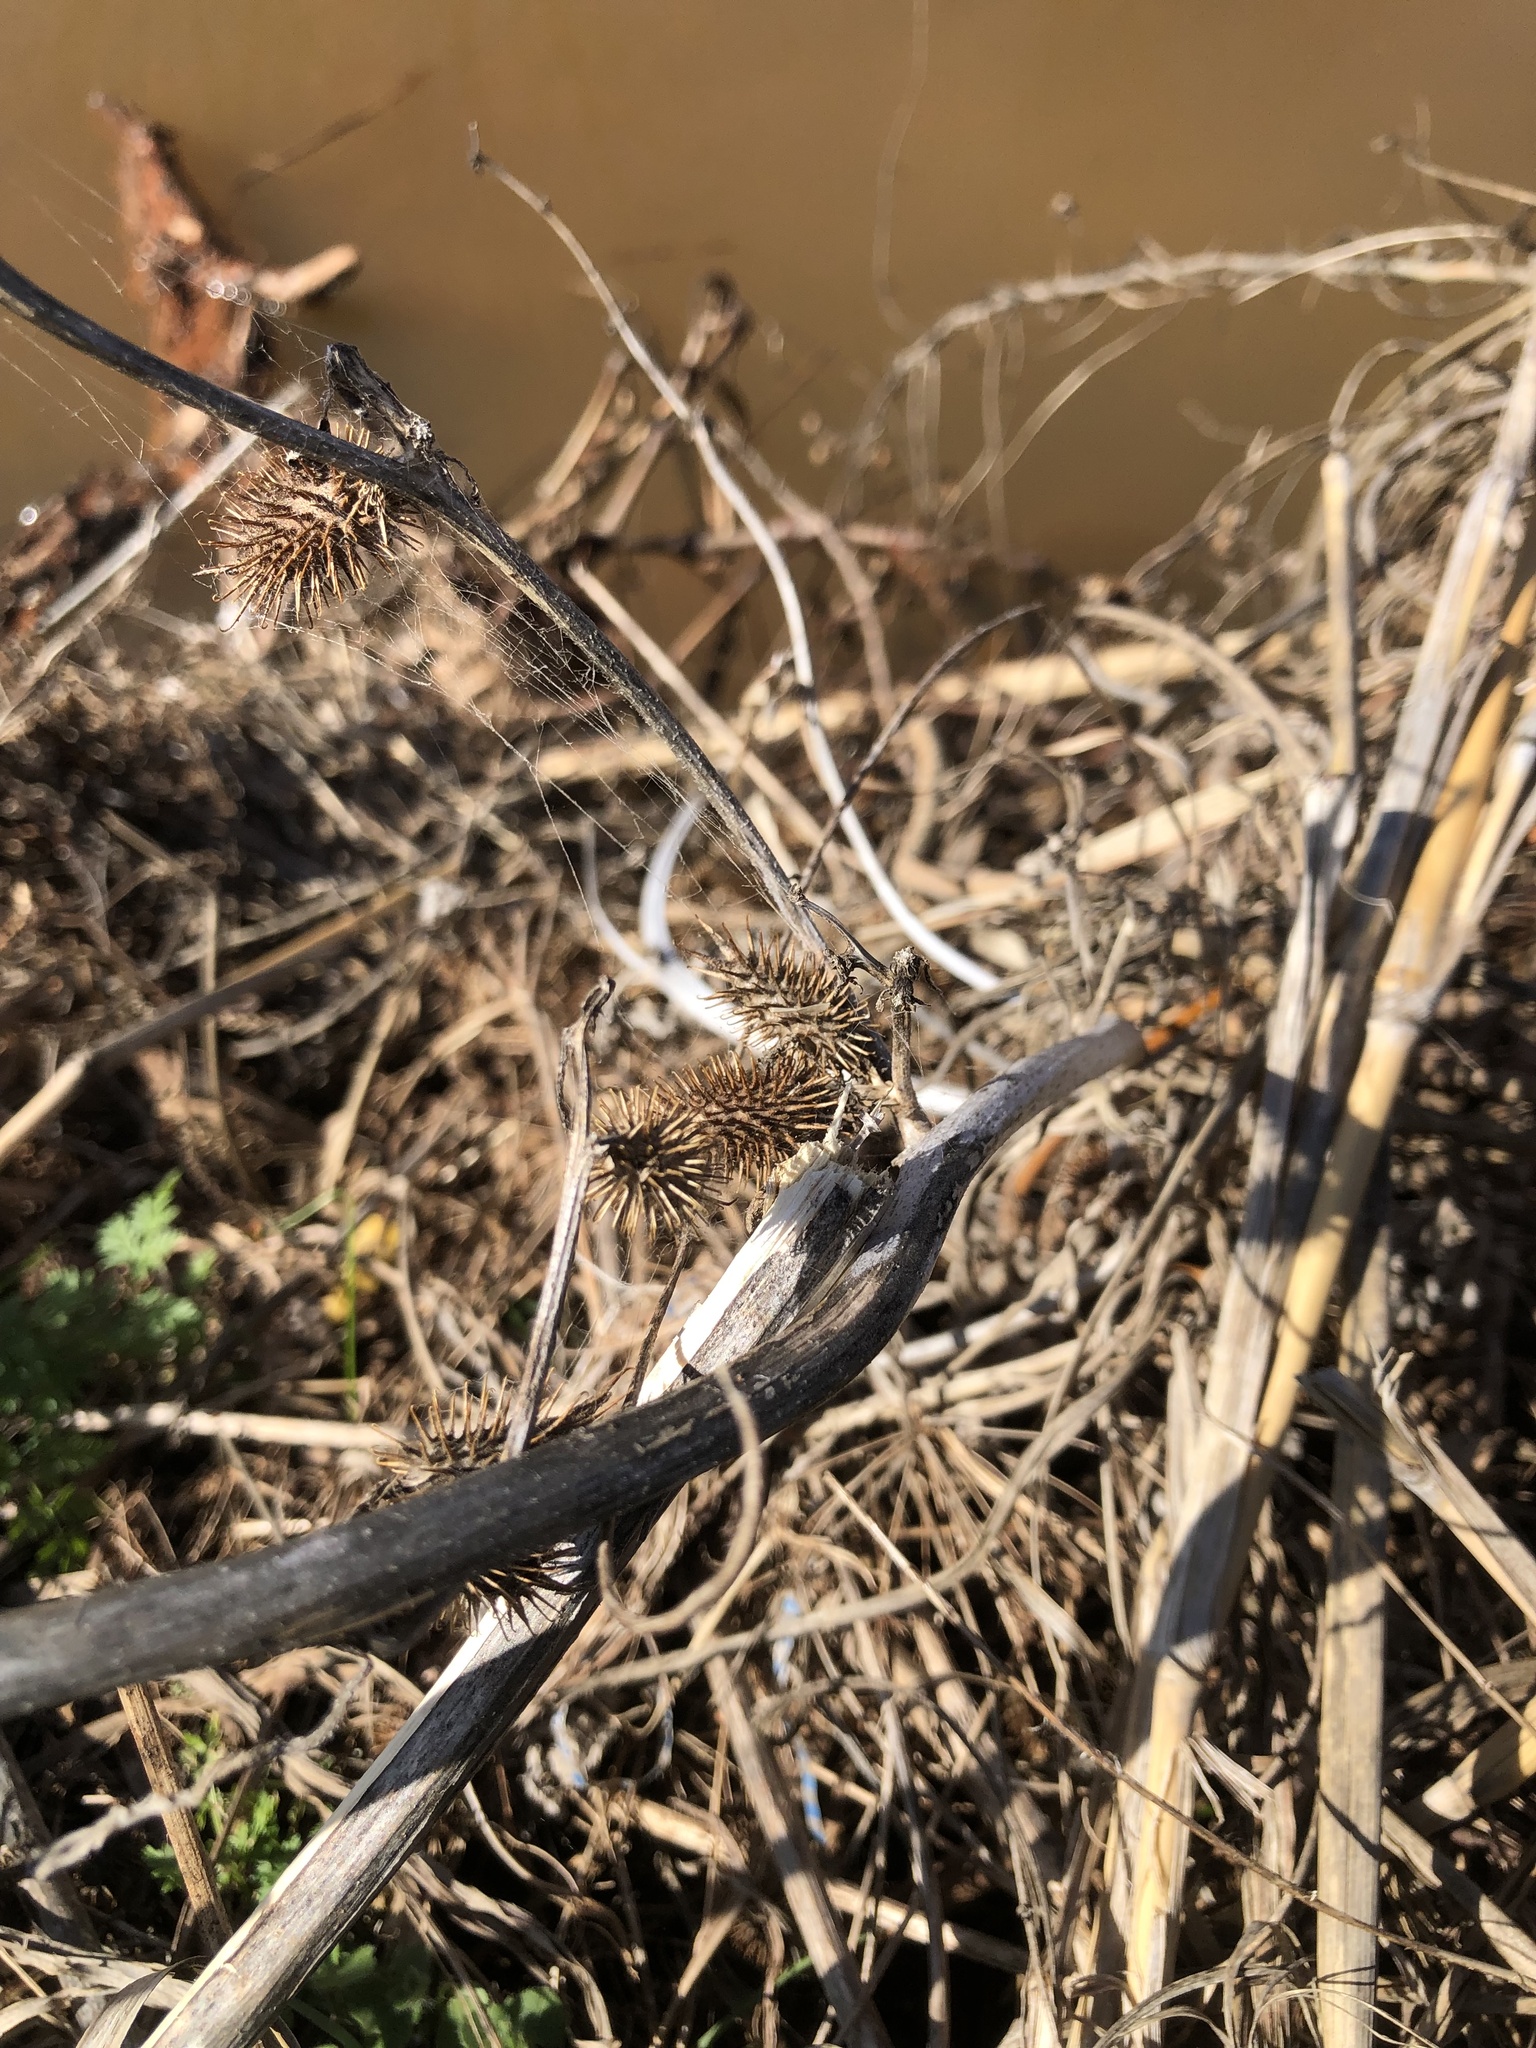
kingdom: Plantae
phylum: Tracheophyta
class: Magnoliopsida
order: Asterales
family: Asteraceae
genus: Xanthium
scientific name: Xanthium strumarium
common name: Rough cocklebur
